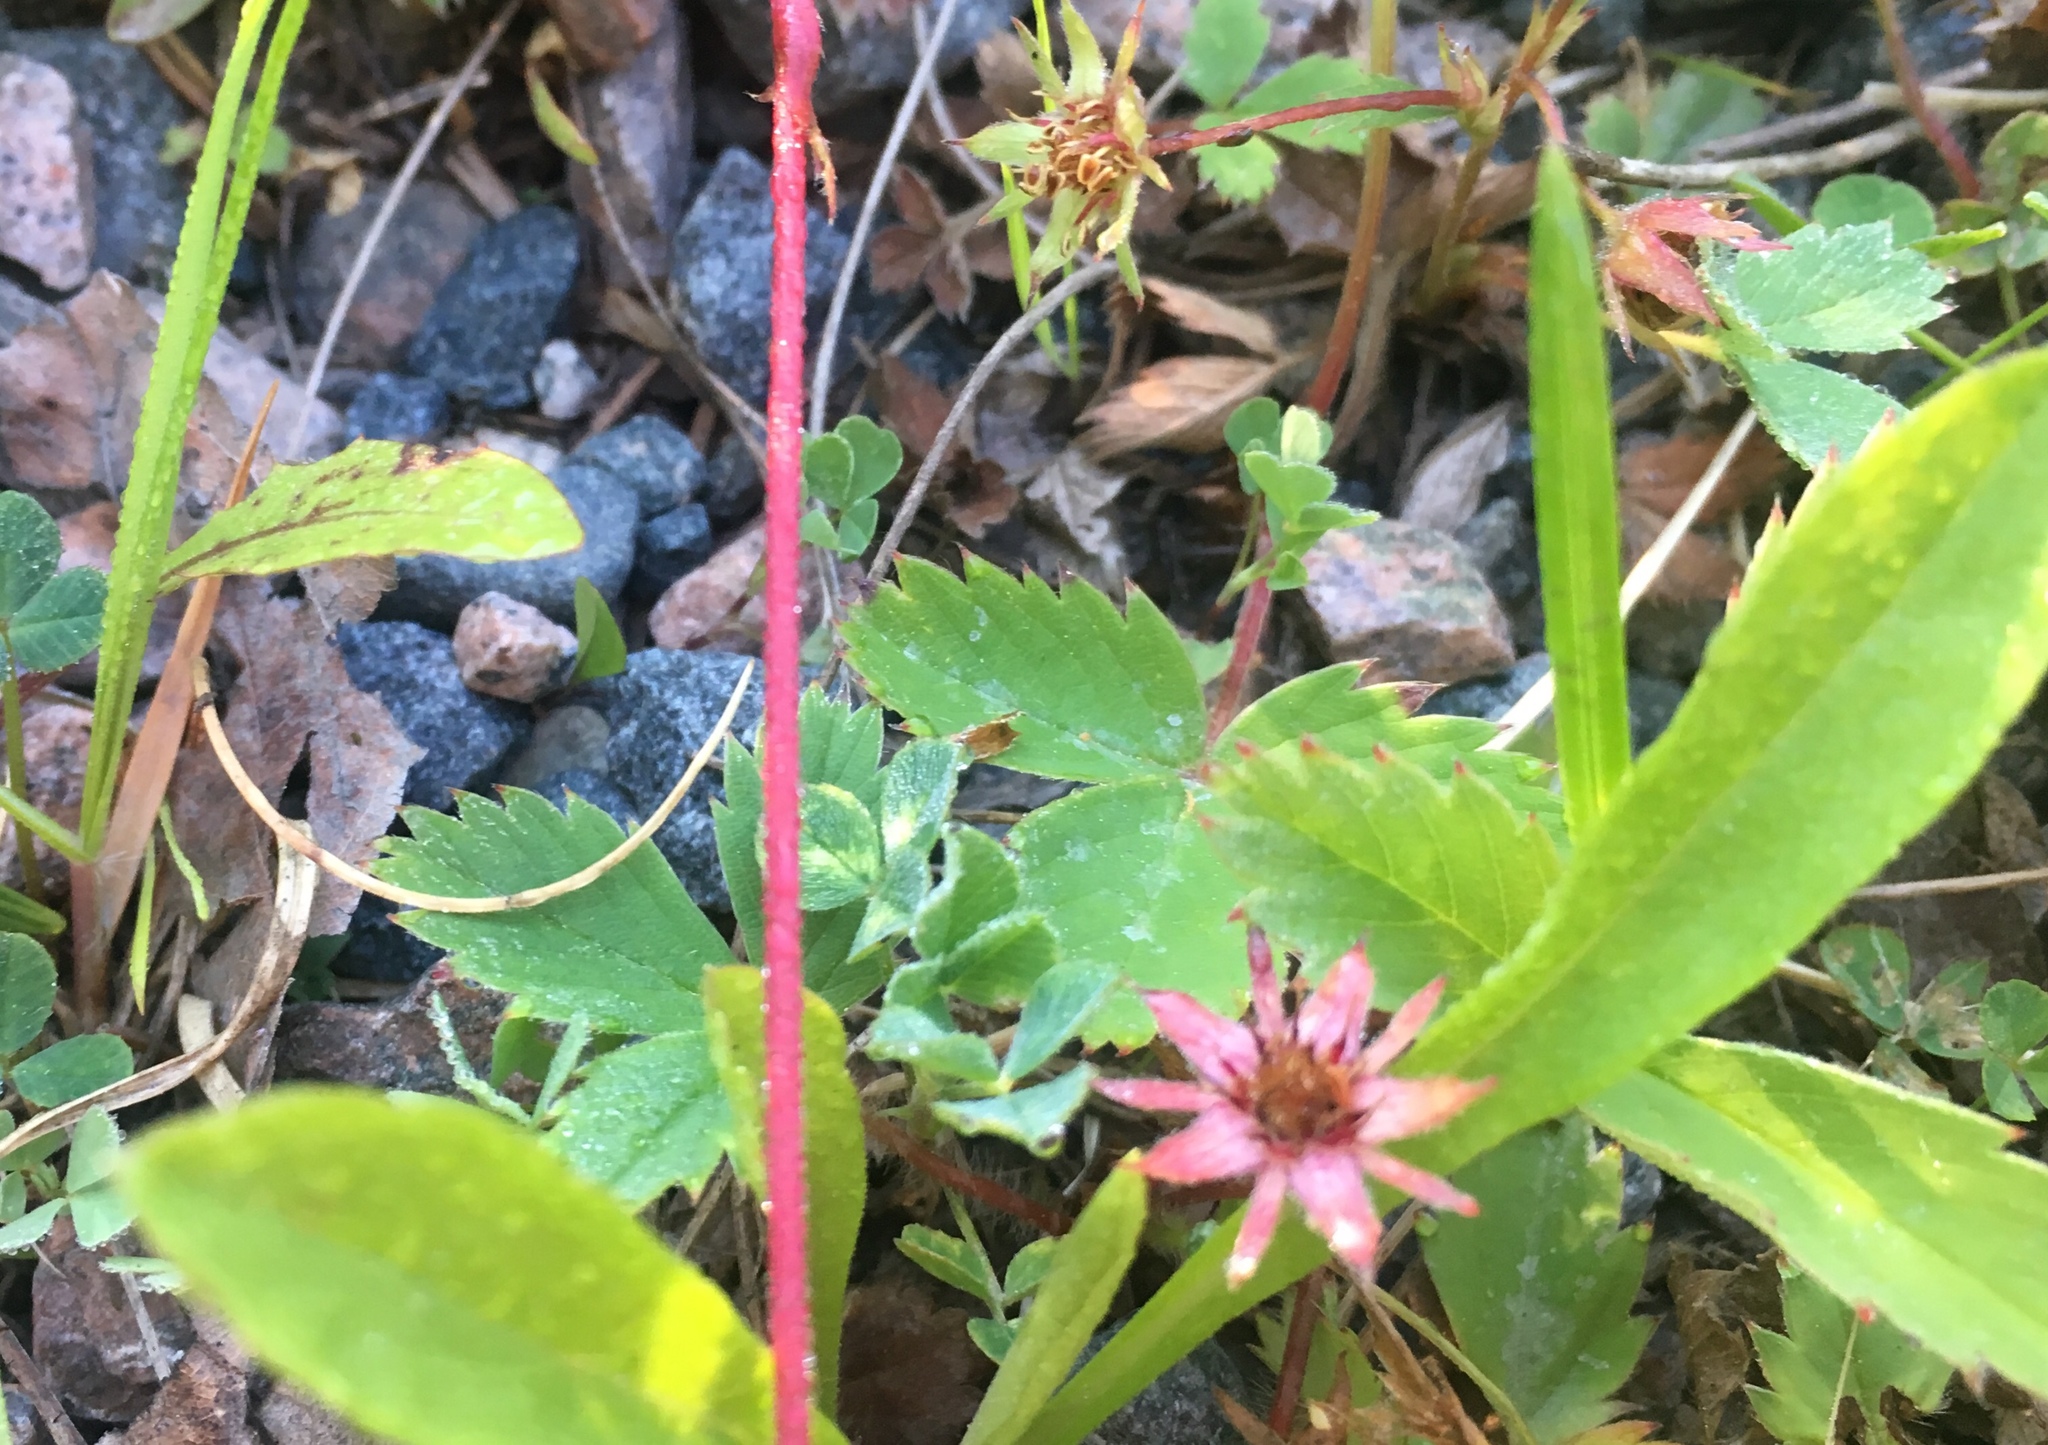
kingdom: Plantae
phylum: Tracheophyta
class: Magnoliopsida
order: Rosales
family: Rosaceae
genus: Comarum
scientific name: Comarum palustre
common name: Marsh cinquefoil
